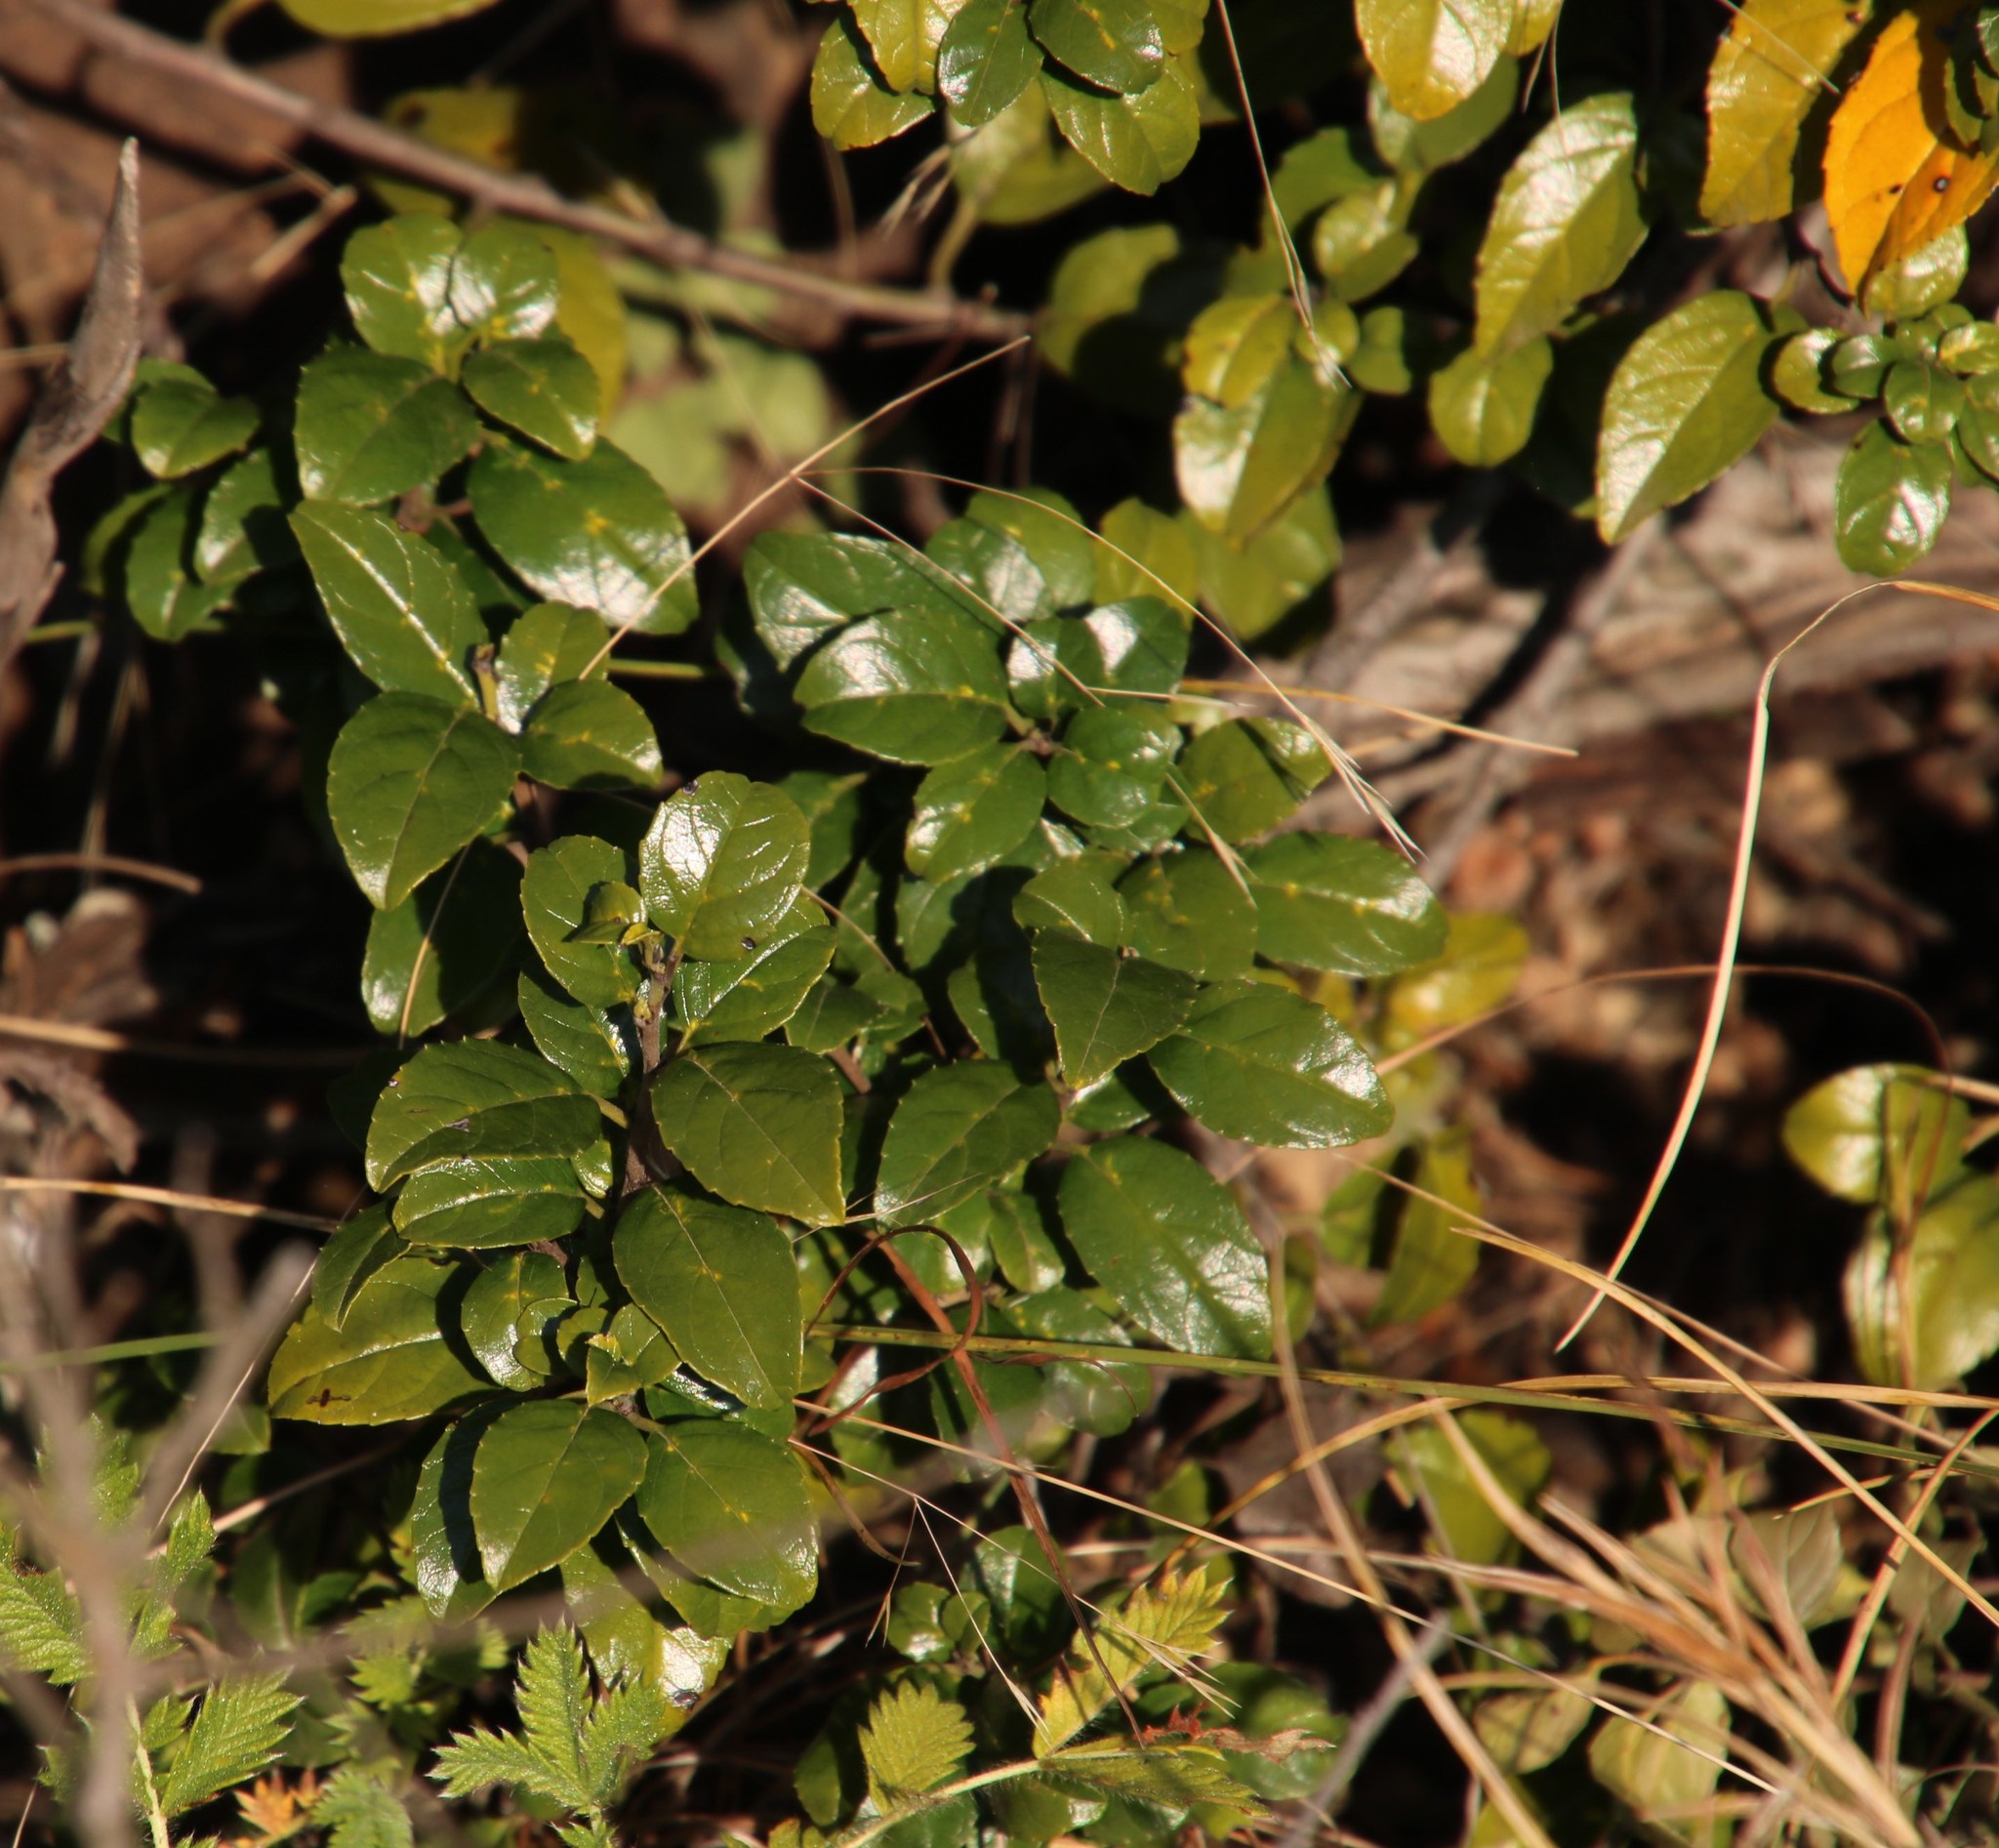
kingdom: Plantae
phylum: Tracheophyta
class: Magnoliopsida
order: Rosales
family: Rhamnaceae
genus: Rhamnus
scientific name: Rhamnus prinoides
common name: Dogwood
